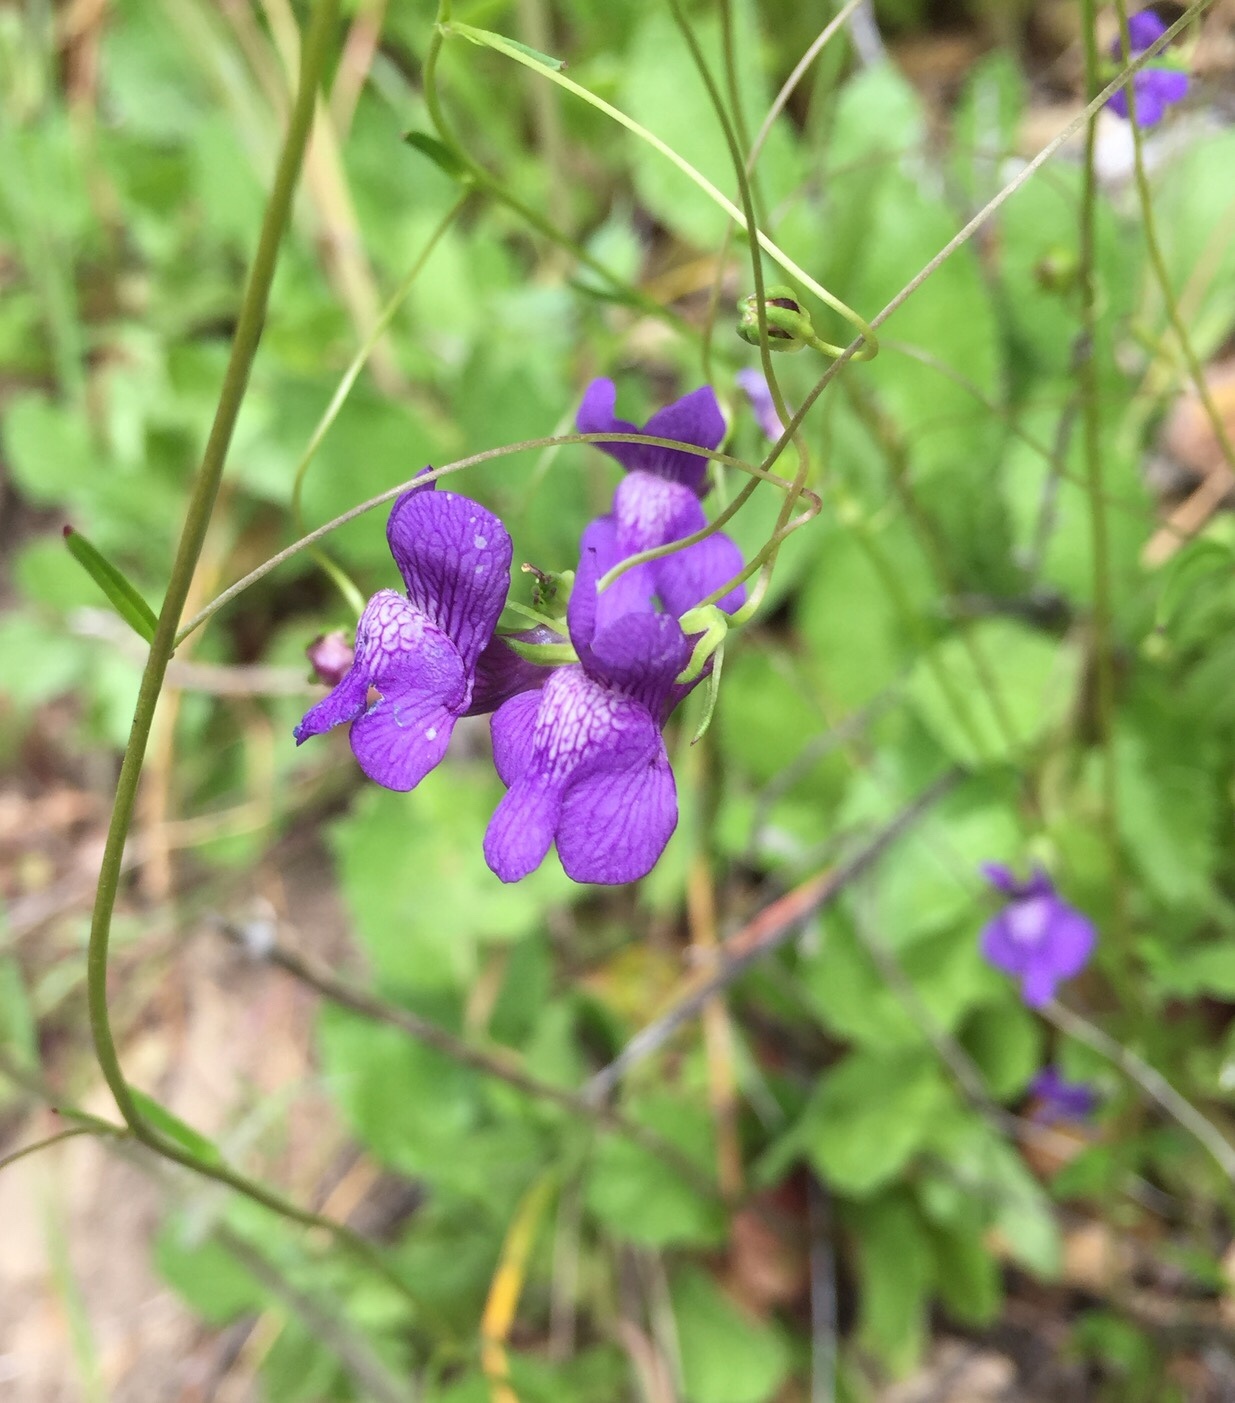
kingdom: Plantae
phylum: Tracheophyta
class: Magnoliopsida
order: Lamiales
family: Plantaginaceae
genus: Neogaerrhinum
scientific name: Neogaerrhinum strictum
